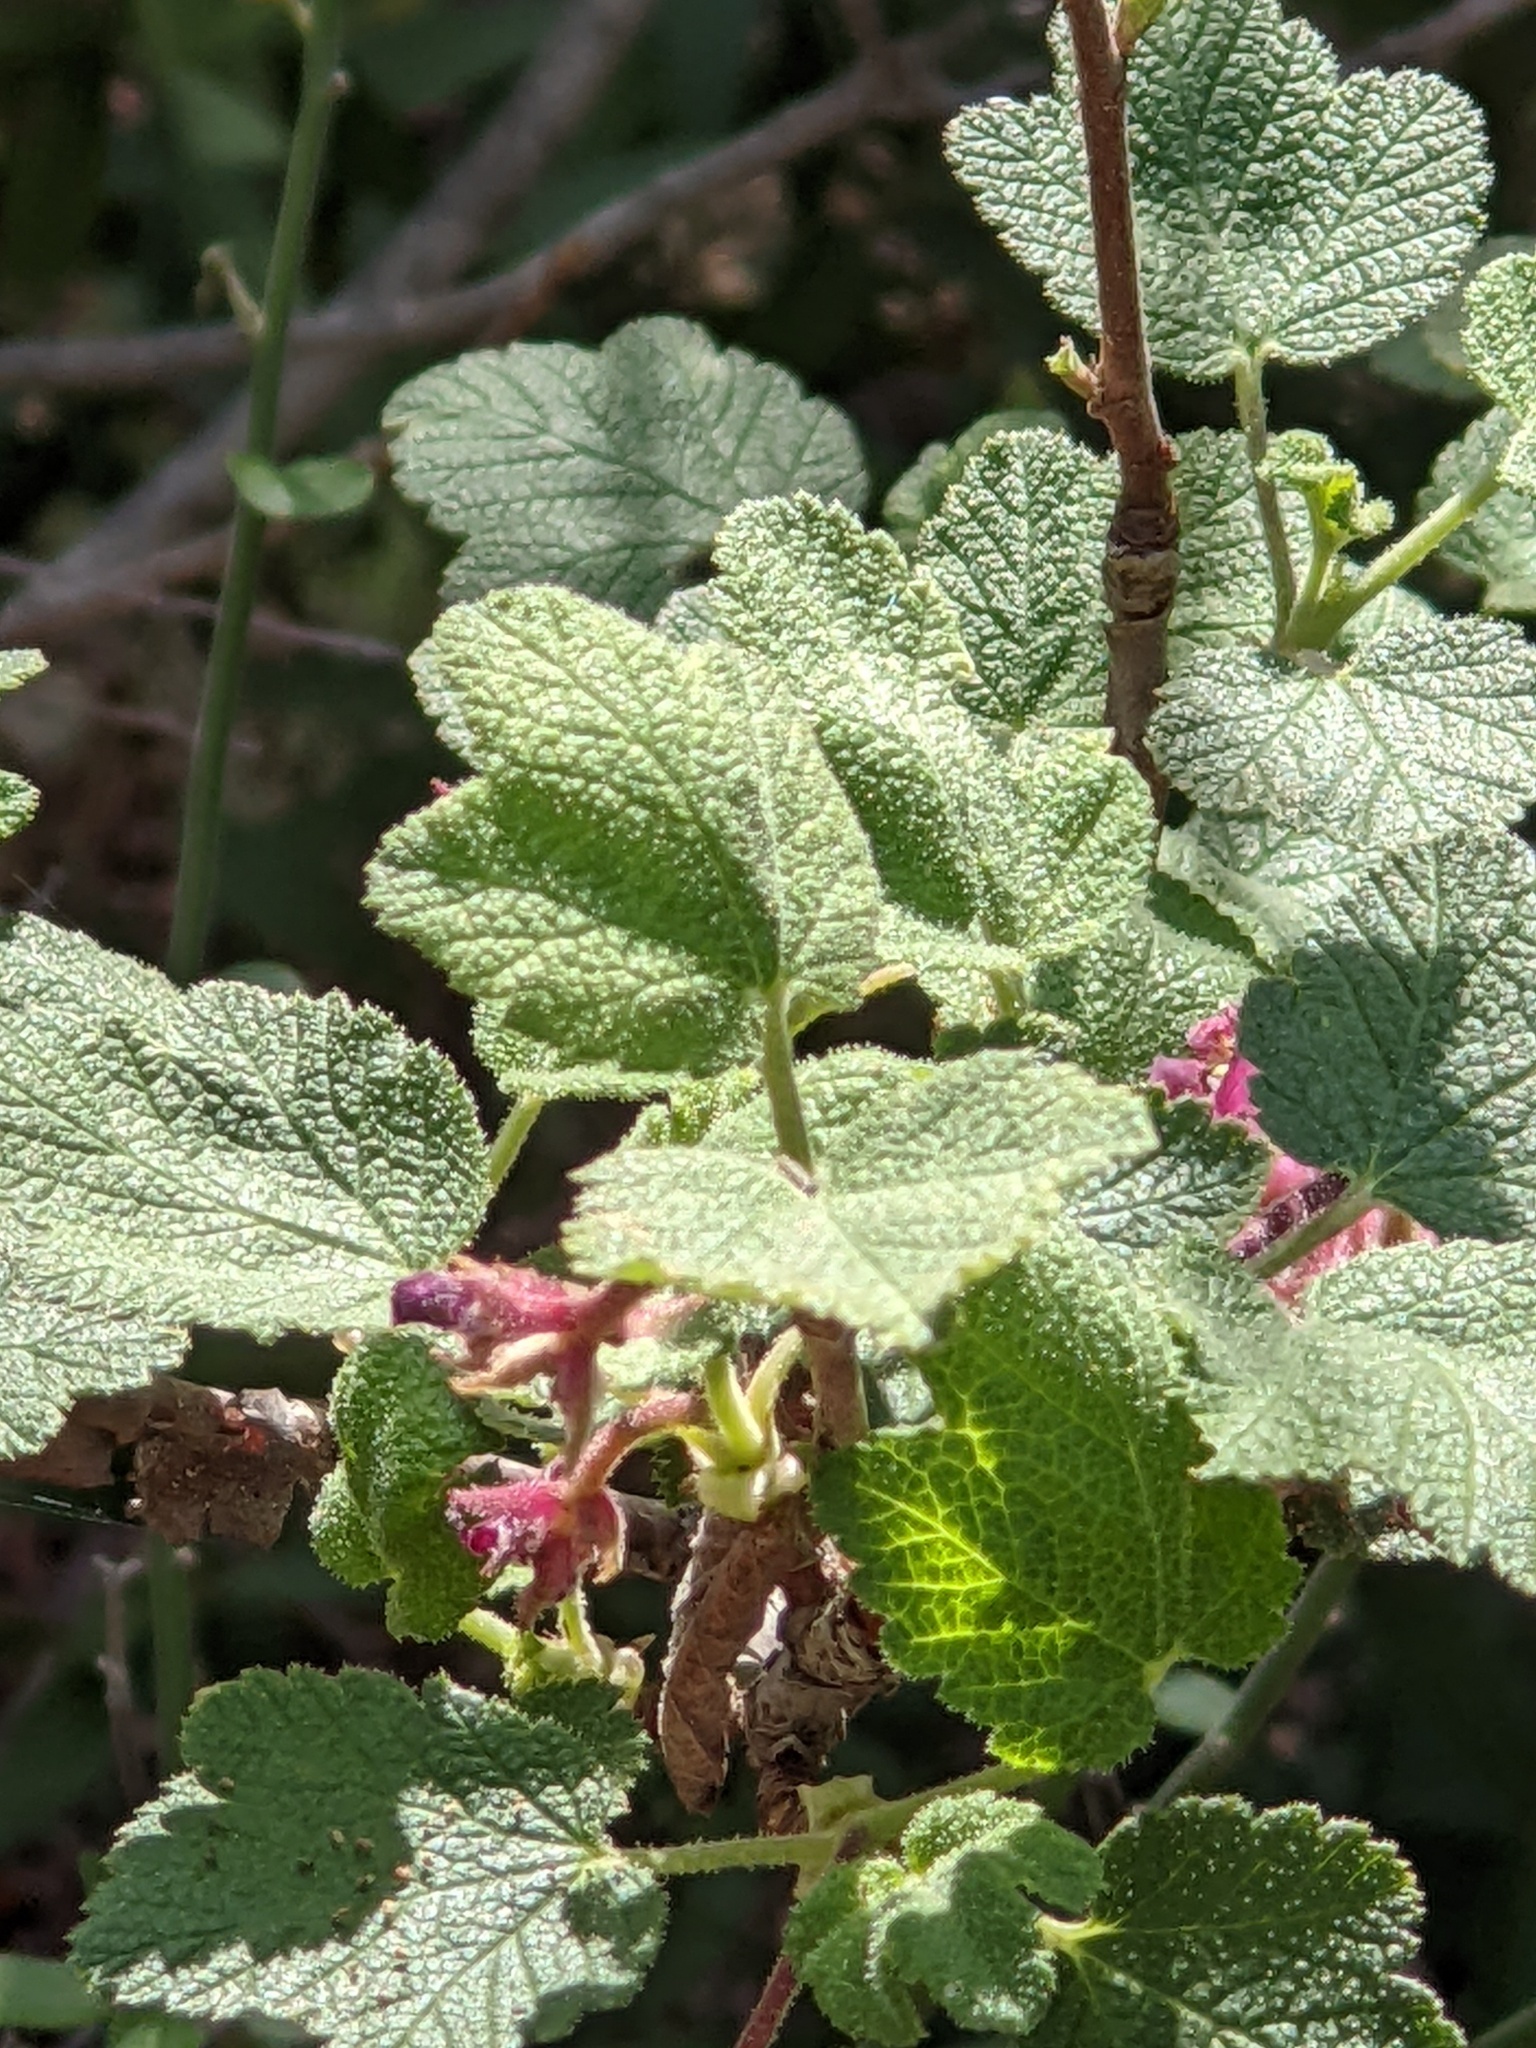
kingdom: Plantae
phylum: Tracheophyta
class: Magnoliopsida
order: Saxifragales
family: Grossulariaceae
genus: Ribes
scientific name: Ribes malvaceum
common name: Chaparral currant
